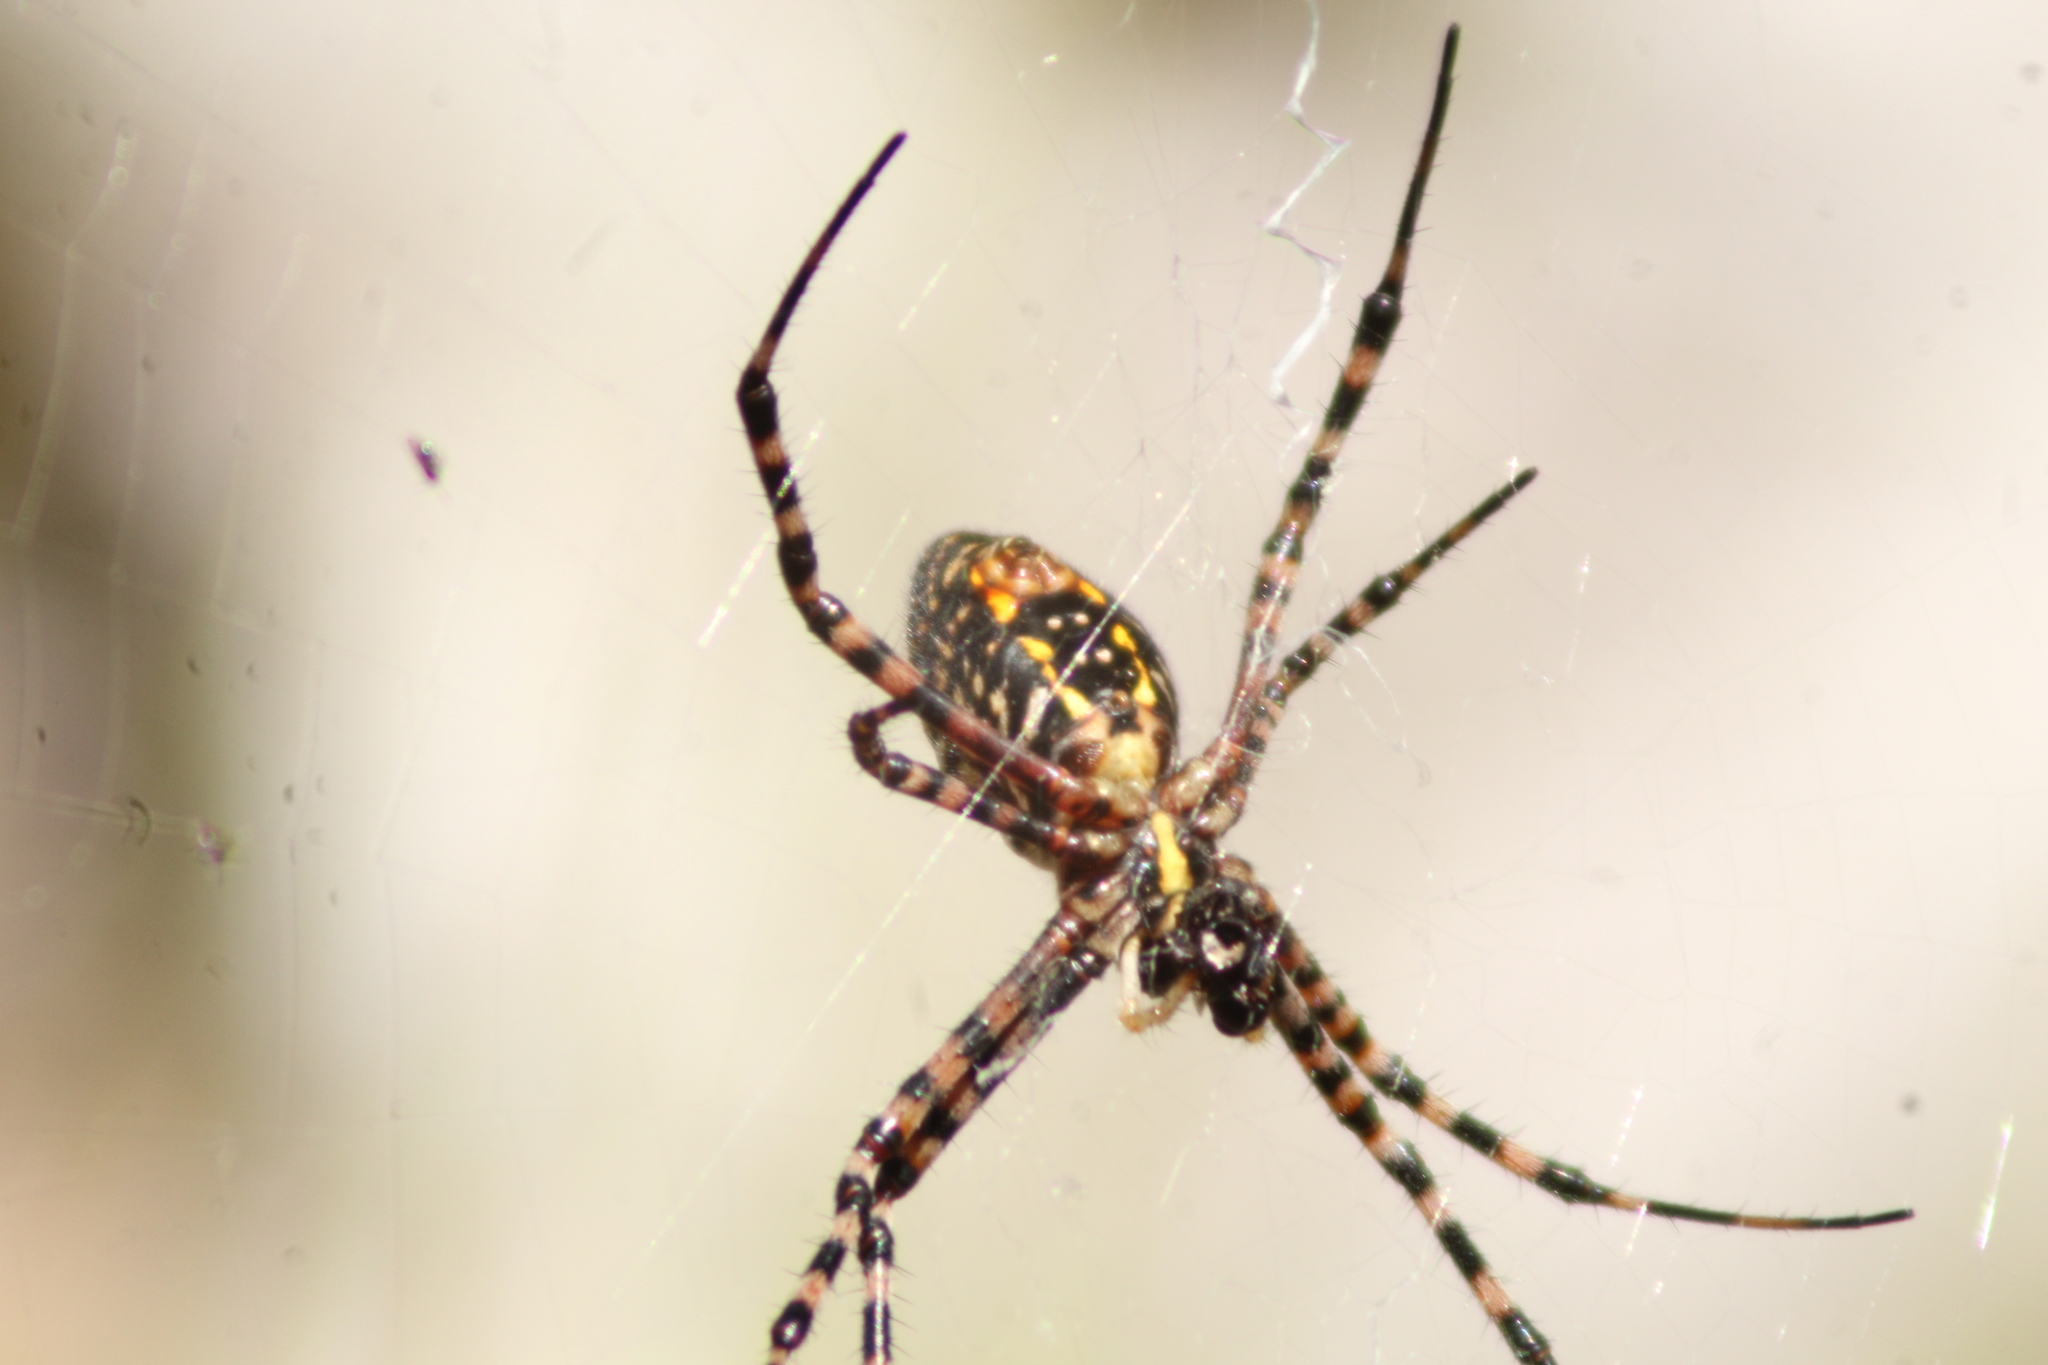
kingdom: Animalia
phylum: Arthropoda
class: Arachnida
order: Araneae
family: Araneidae
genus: Argiope
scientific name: Argiope trifasciata
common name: Banded garden spider
